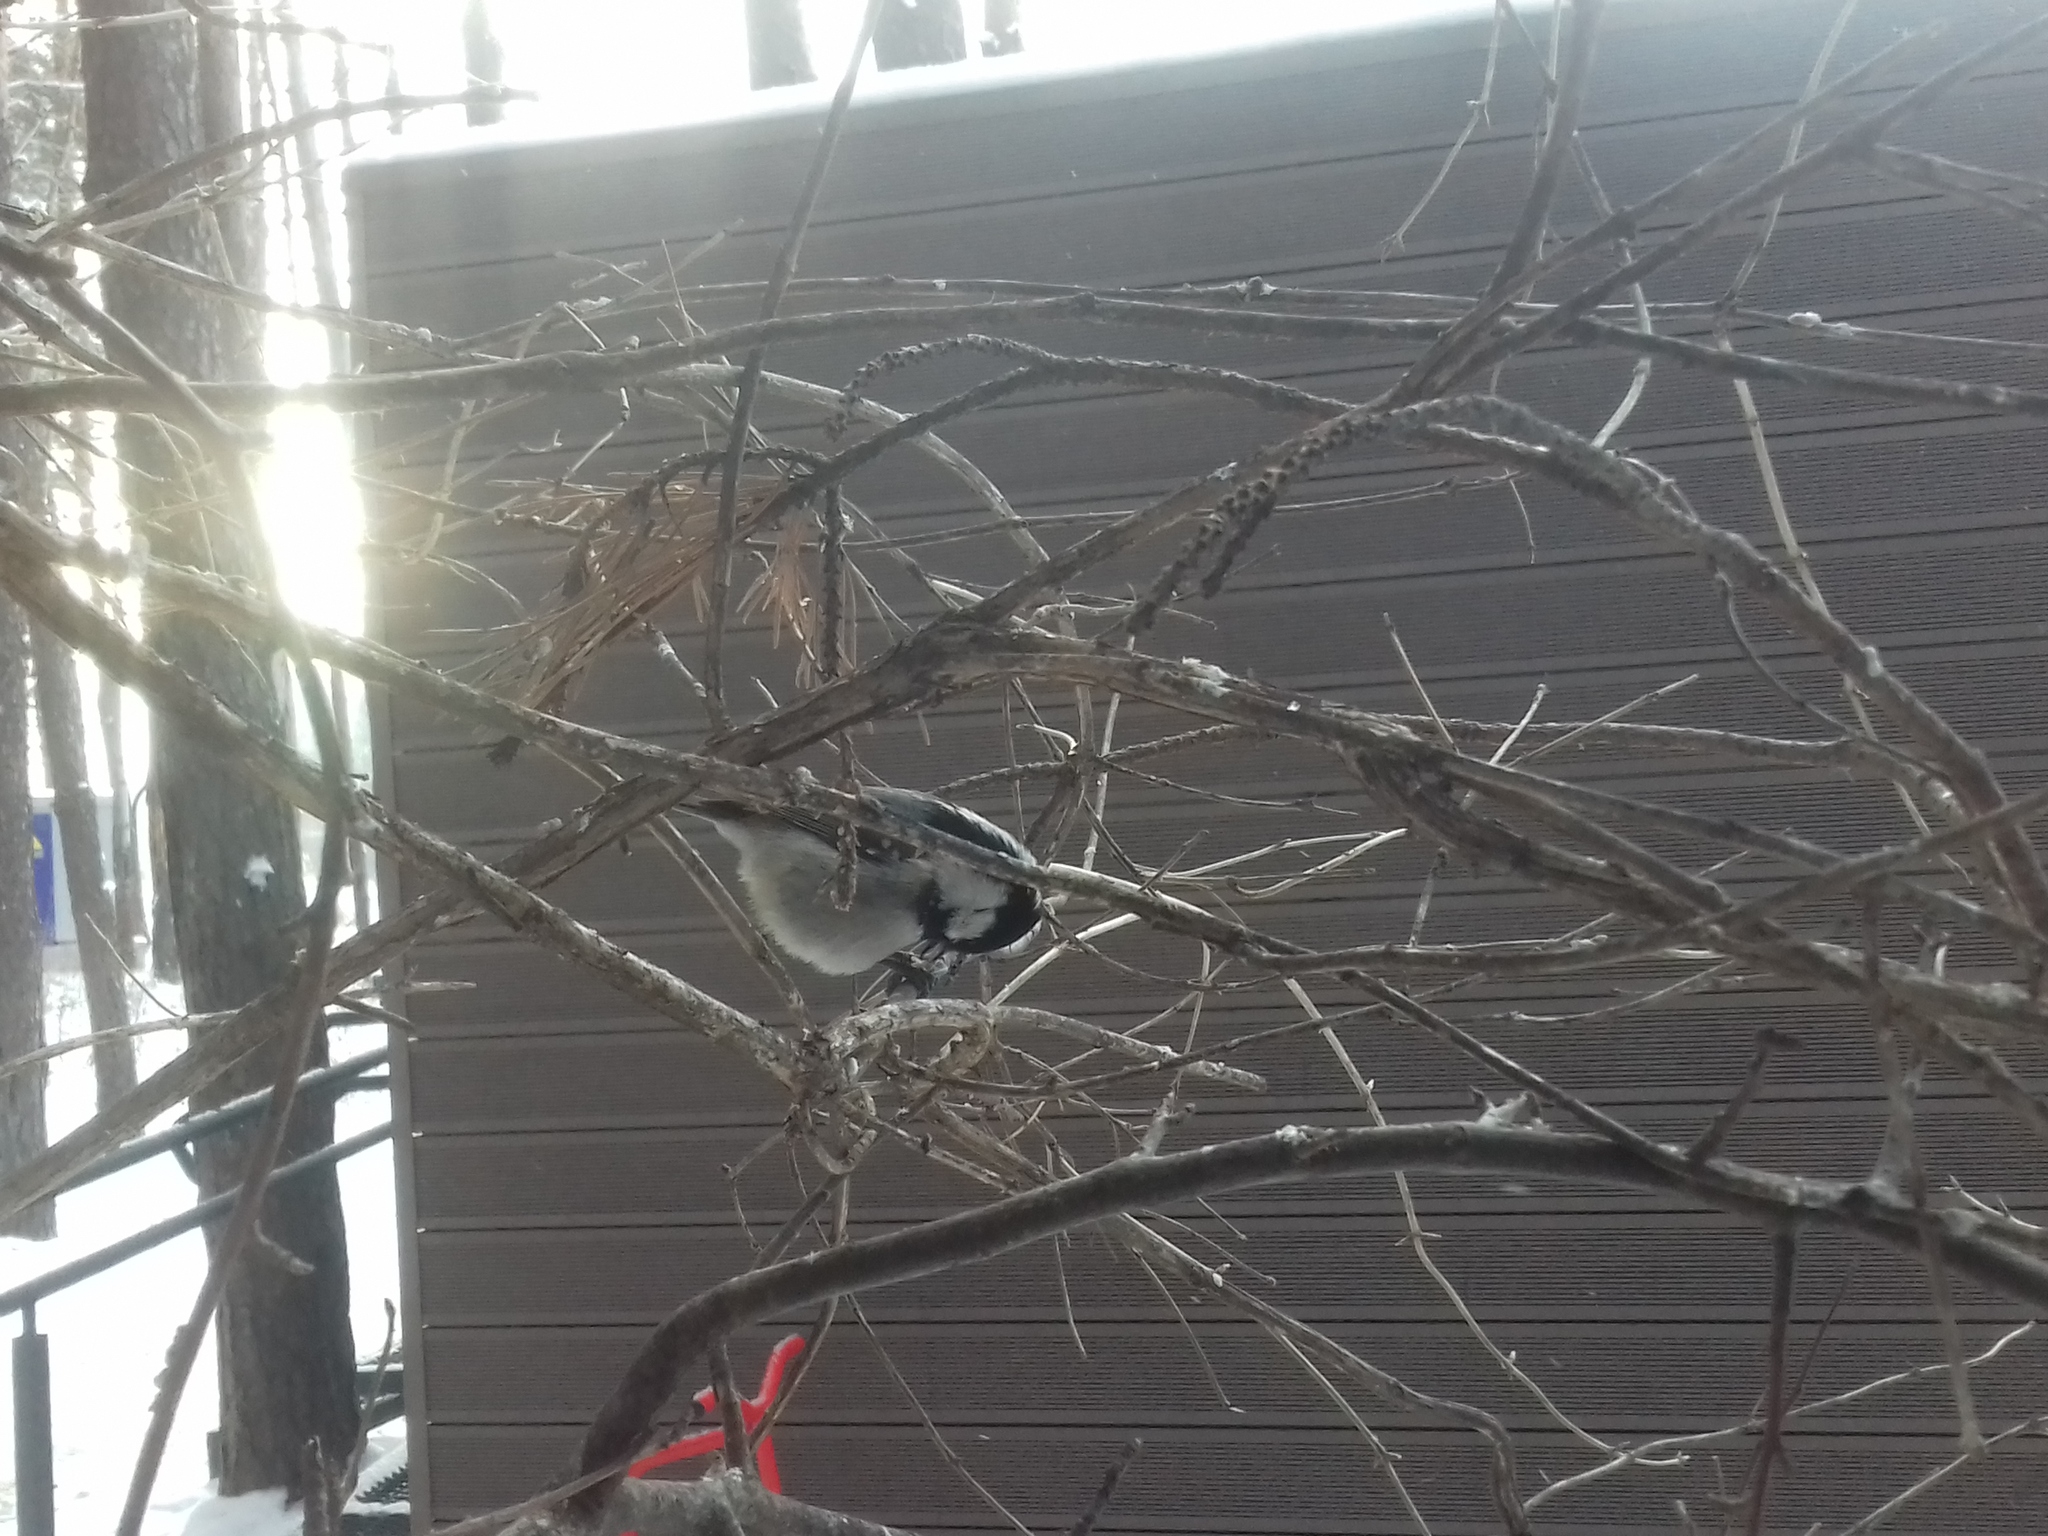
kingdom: Animalia
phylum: Chordata
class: Aves
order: Passeriformes
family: Paridae
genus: Periparus
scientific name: Periparus ater
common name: Coal tit
